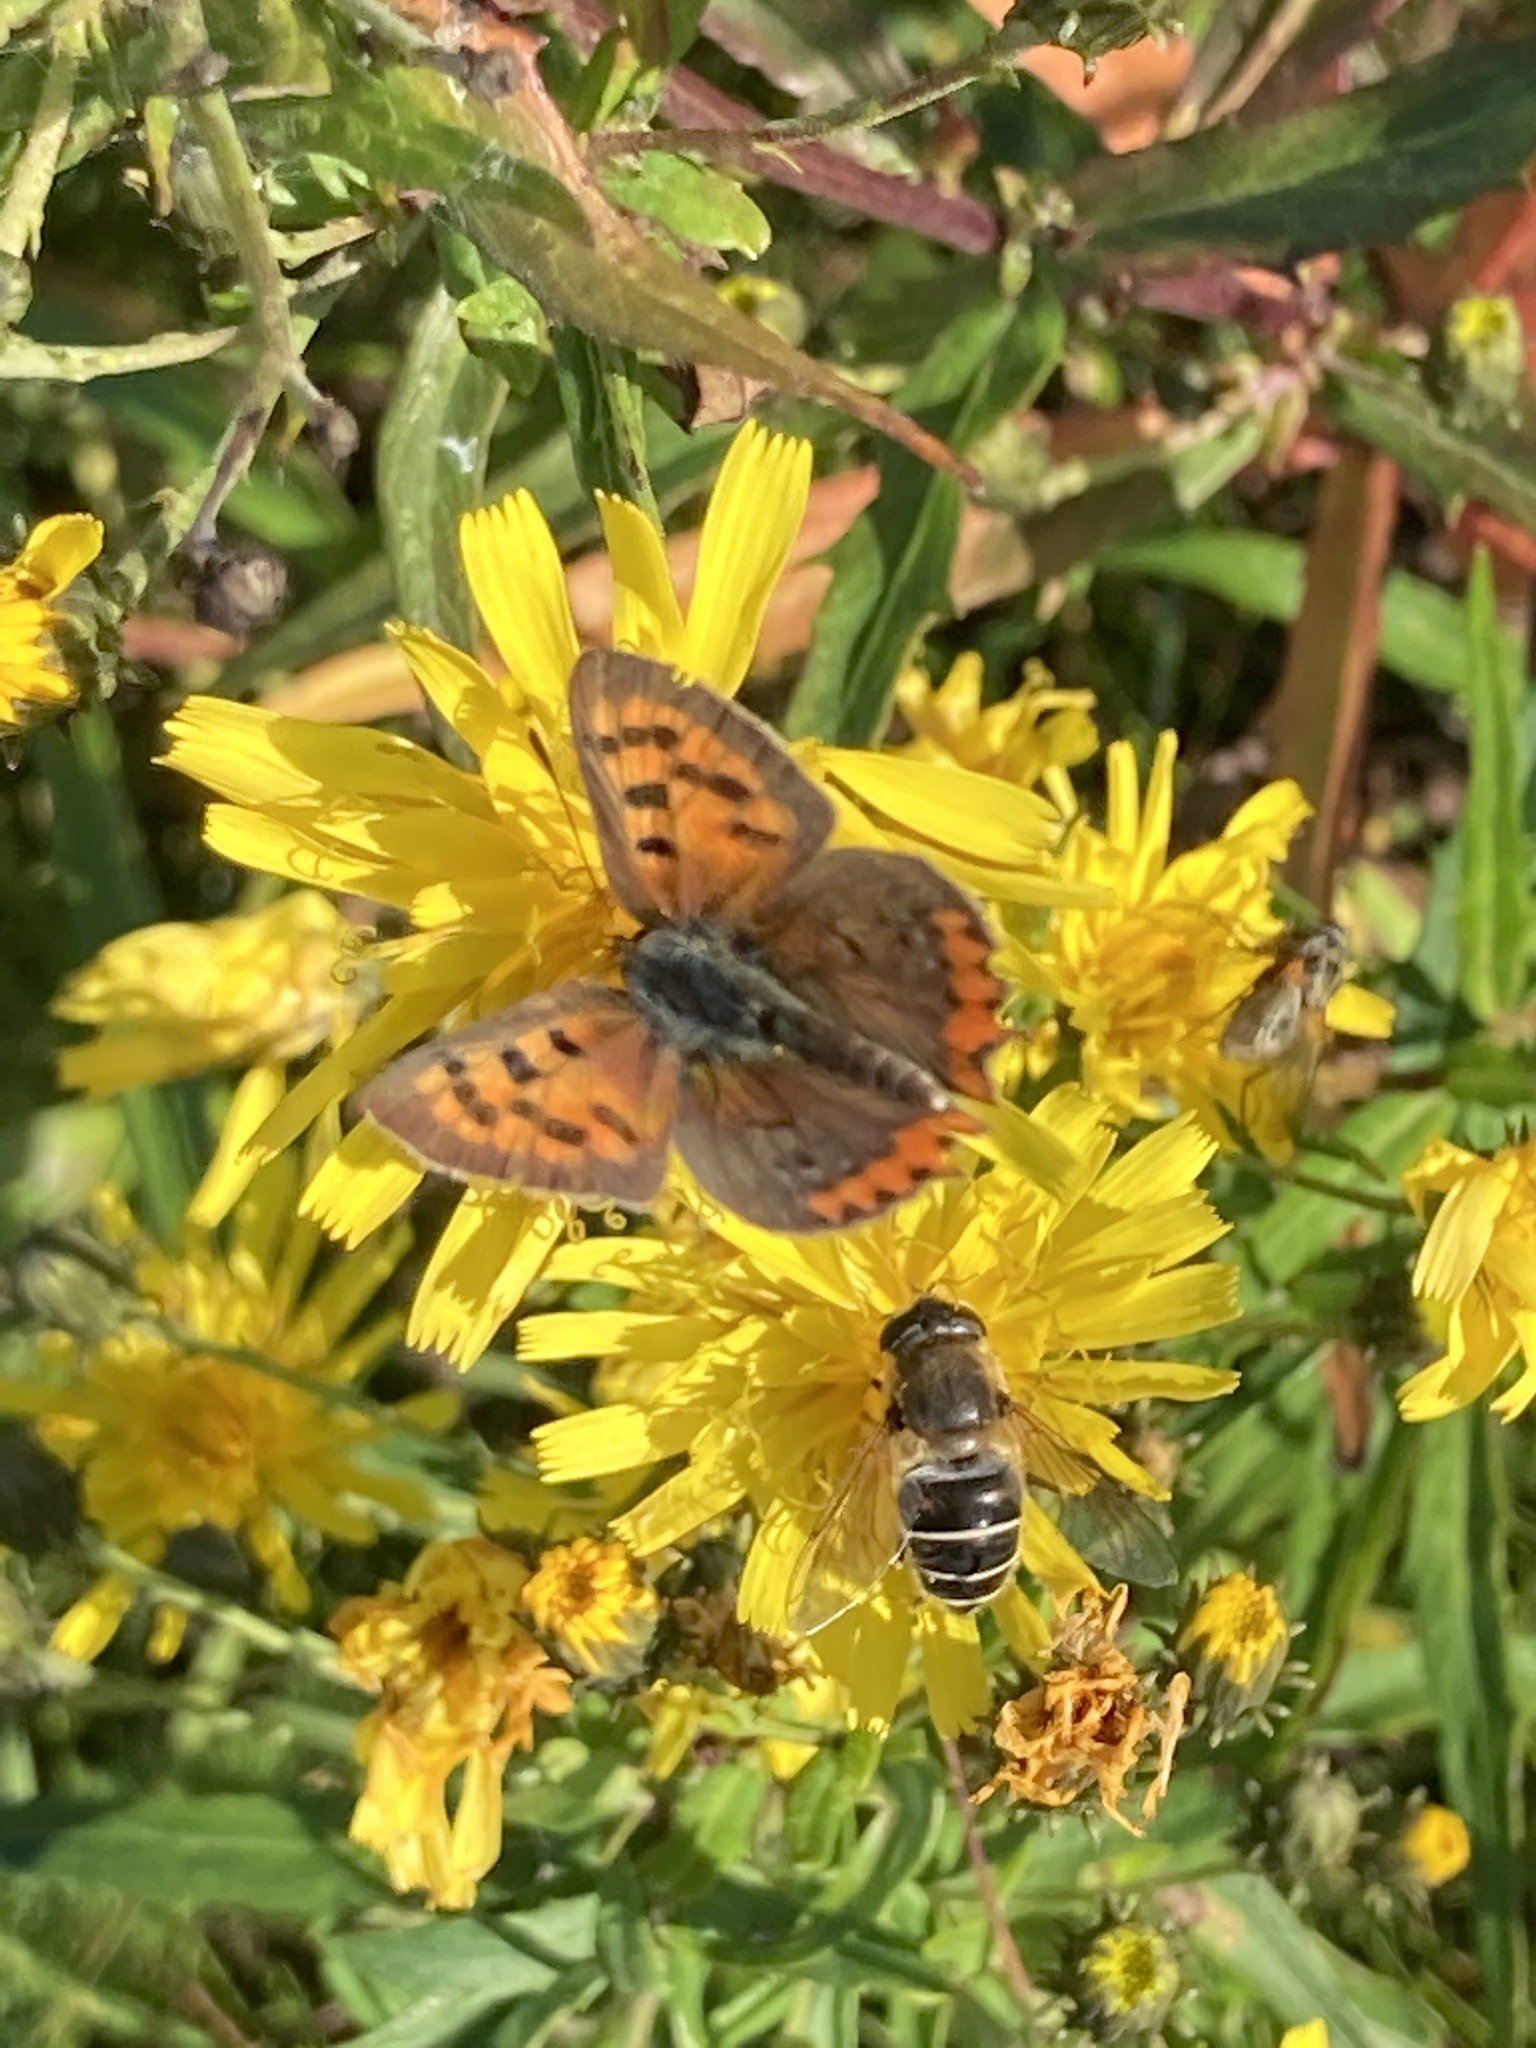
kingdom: Animalia
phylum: Arthropoda
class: Insecta
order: Lepidoptera
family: Lycaenidae
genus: Lycaena
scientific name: Lycaena phlaeas
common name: Small copper
